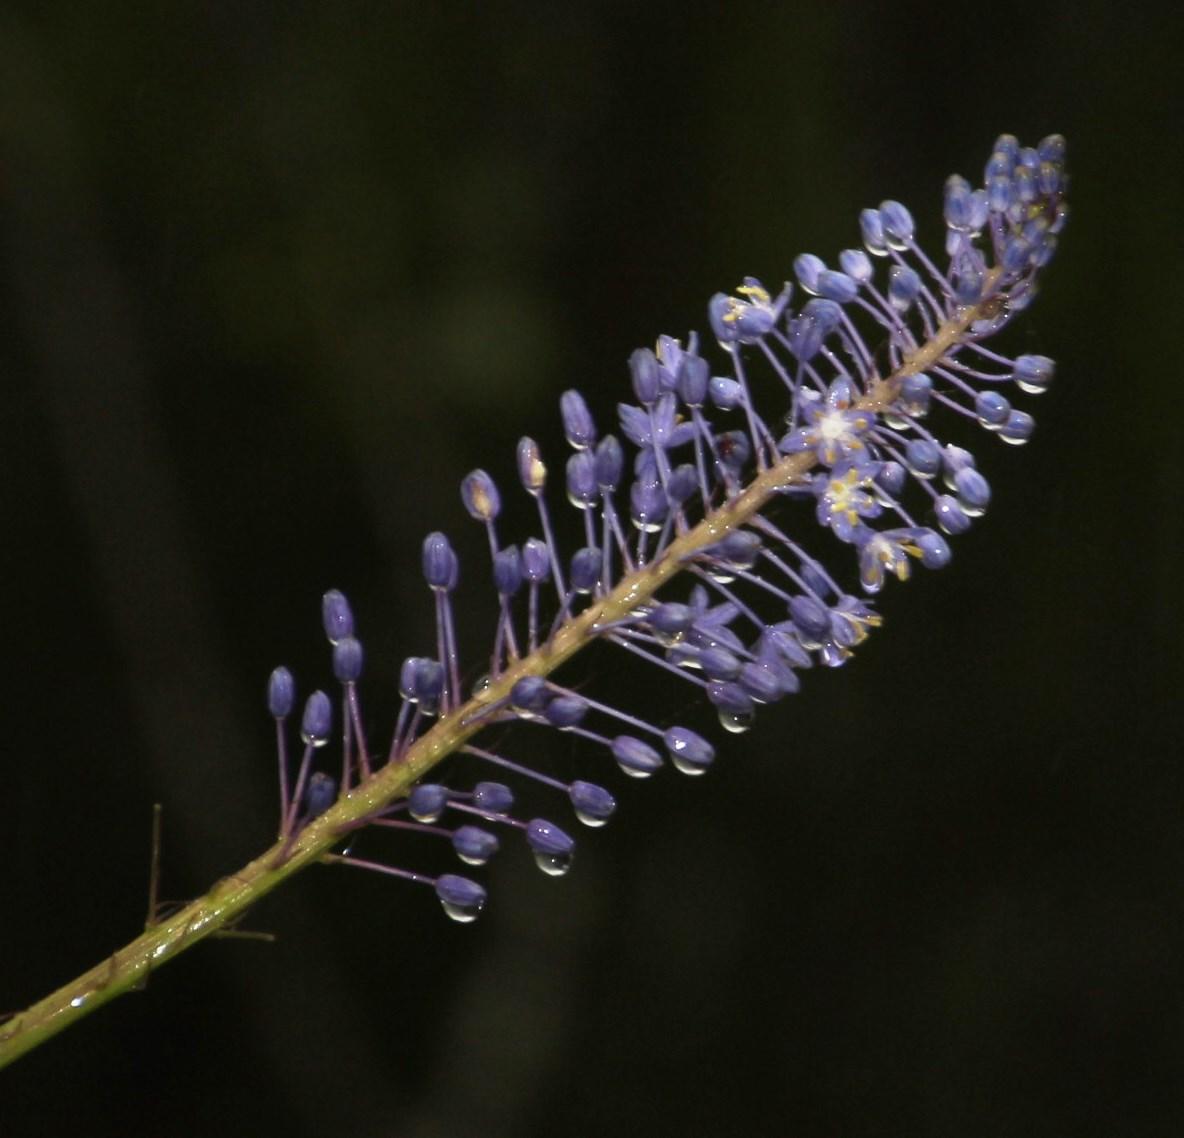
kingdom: Plantae
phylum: Tracheophyta
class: Liliopsida
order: Asparagales
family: Asparagaceae
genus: Merwilla
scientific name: Merwilla plumbea
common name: Blue-squill
